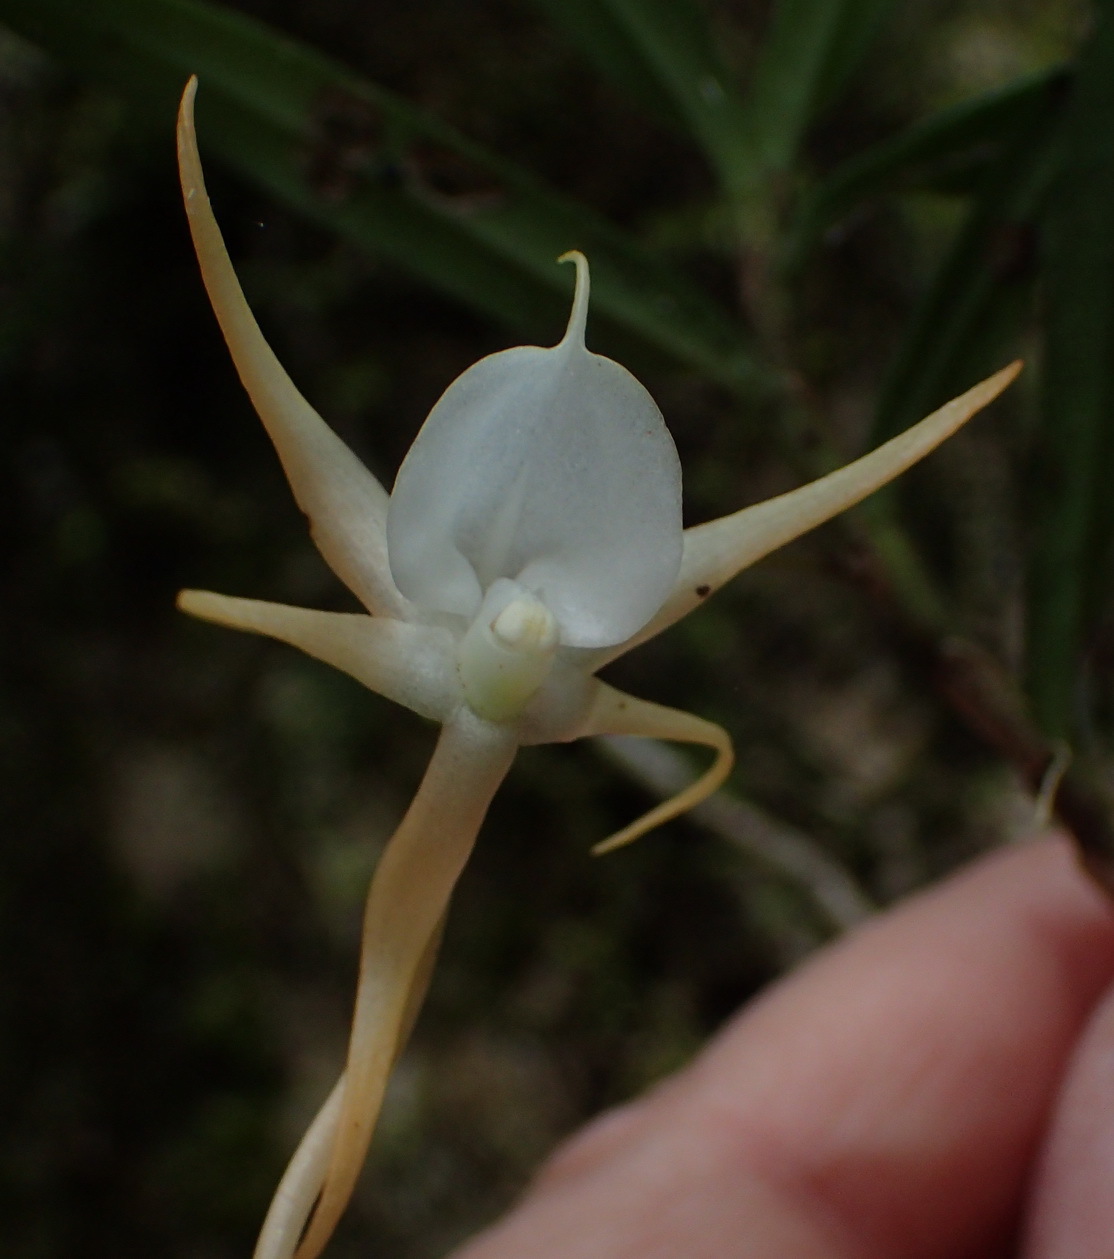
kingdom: Plantae
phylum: Tracheophyta
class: Liliopsida
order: Asparagales
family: Orchidaceae
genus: Angraecum
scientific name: Angraecum conchiferum
